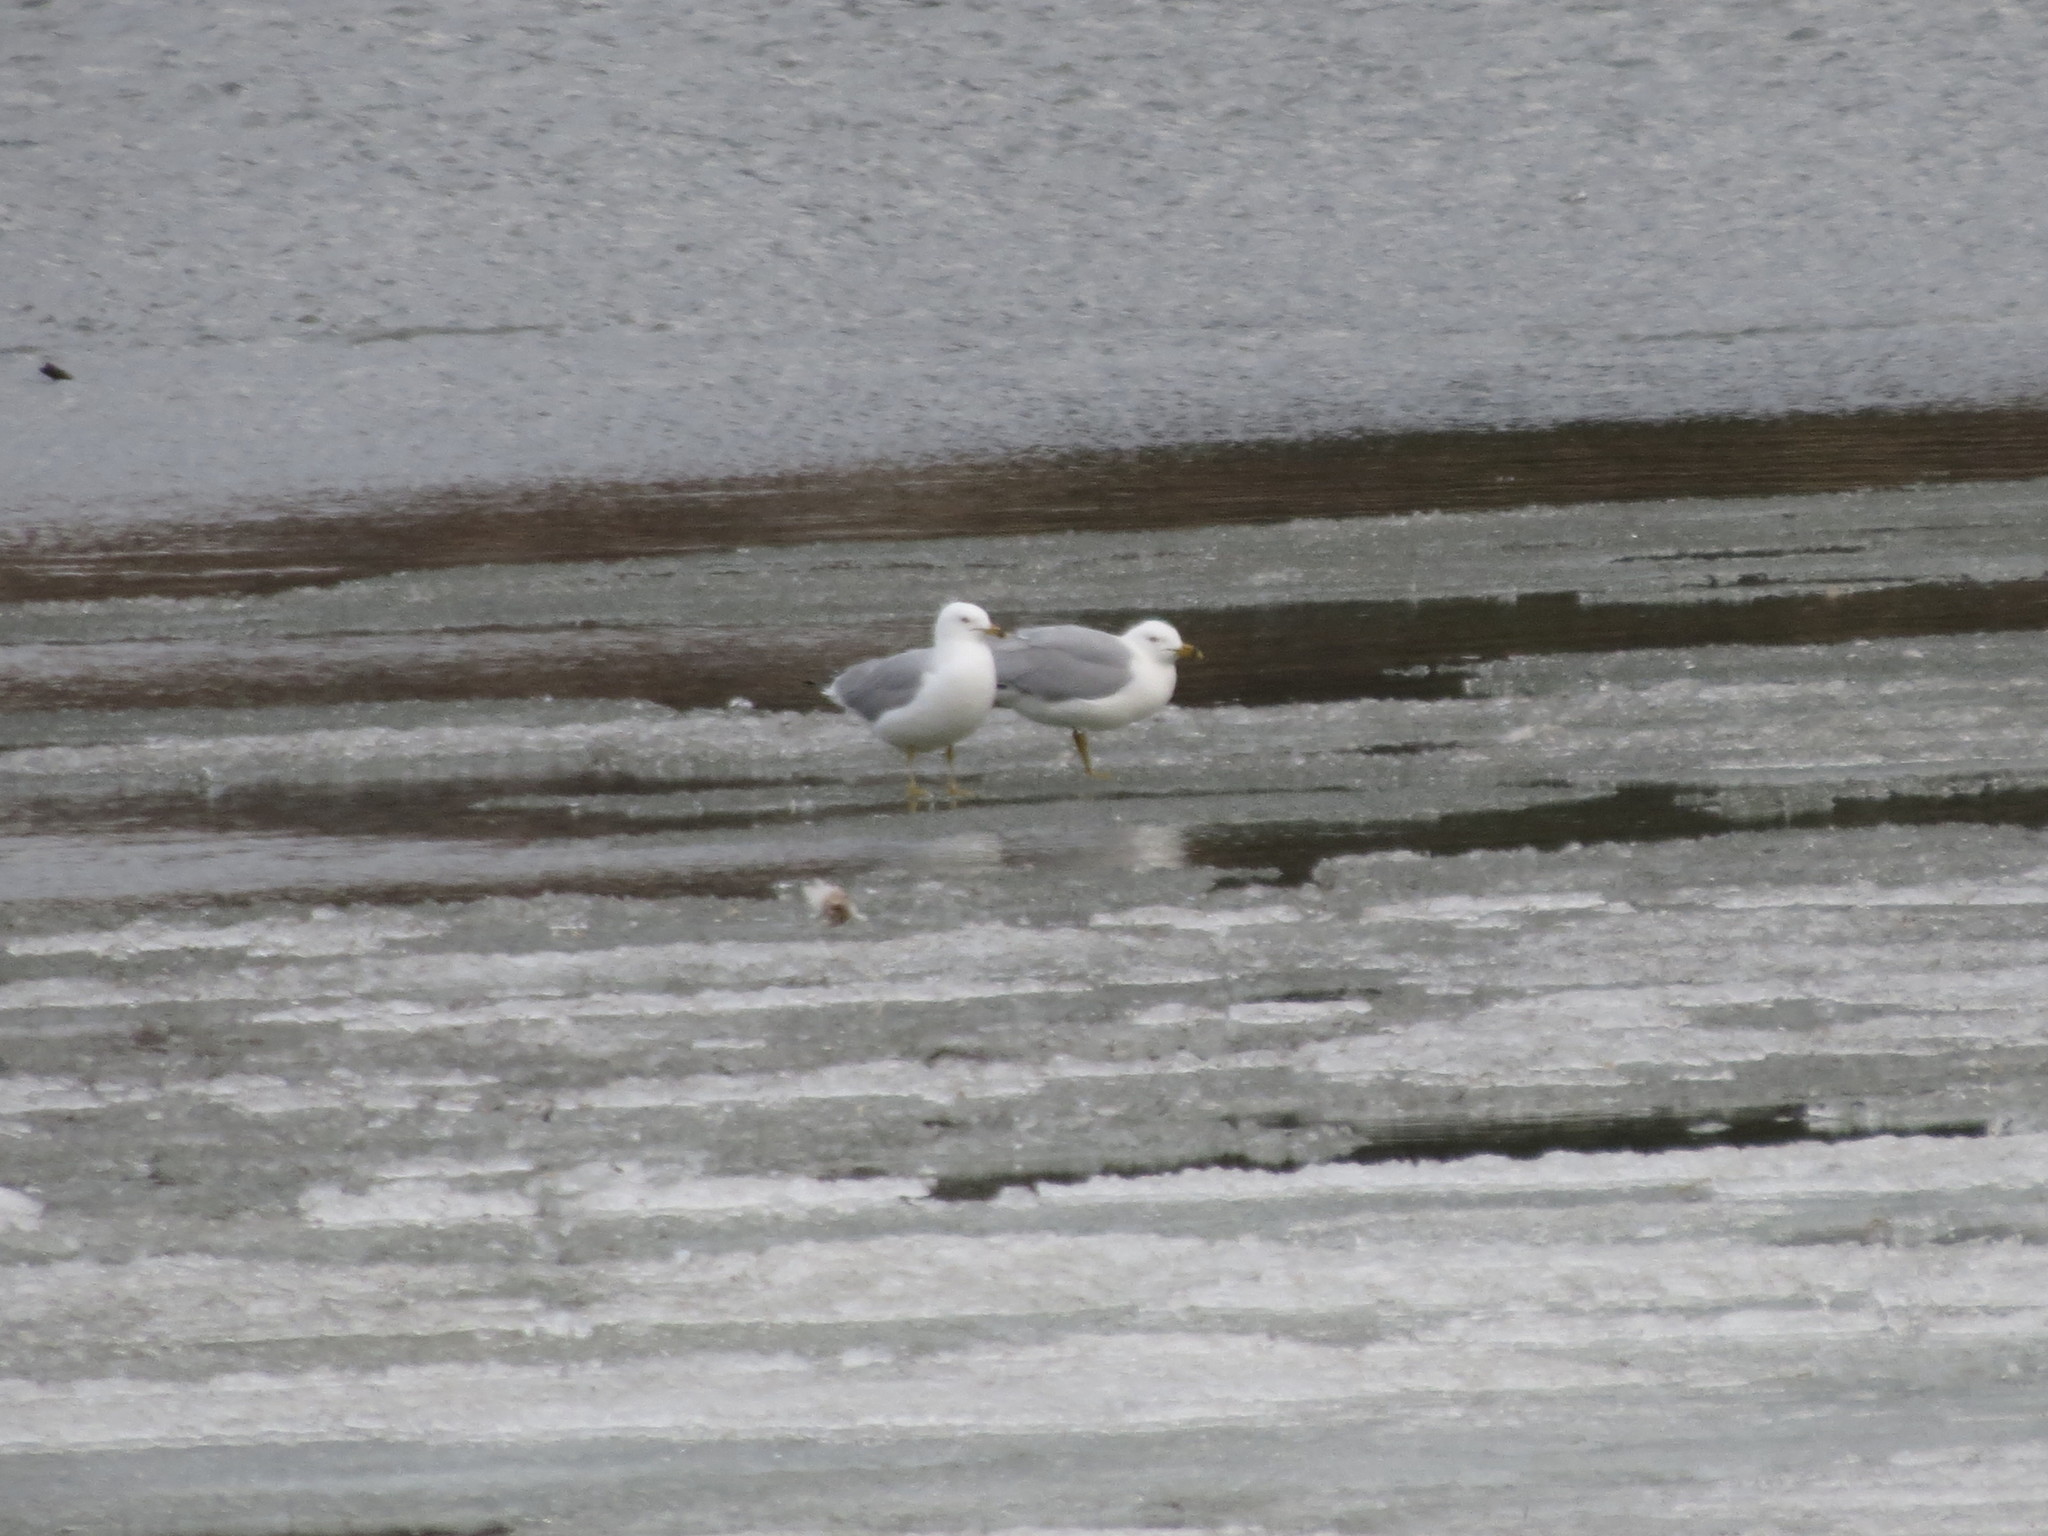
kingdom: Animalia
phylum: Chordata
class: Aves
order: Charadriiformes
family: Laridae
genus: Larus
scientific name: Larus delawarensis
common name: Ring-billed gull
